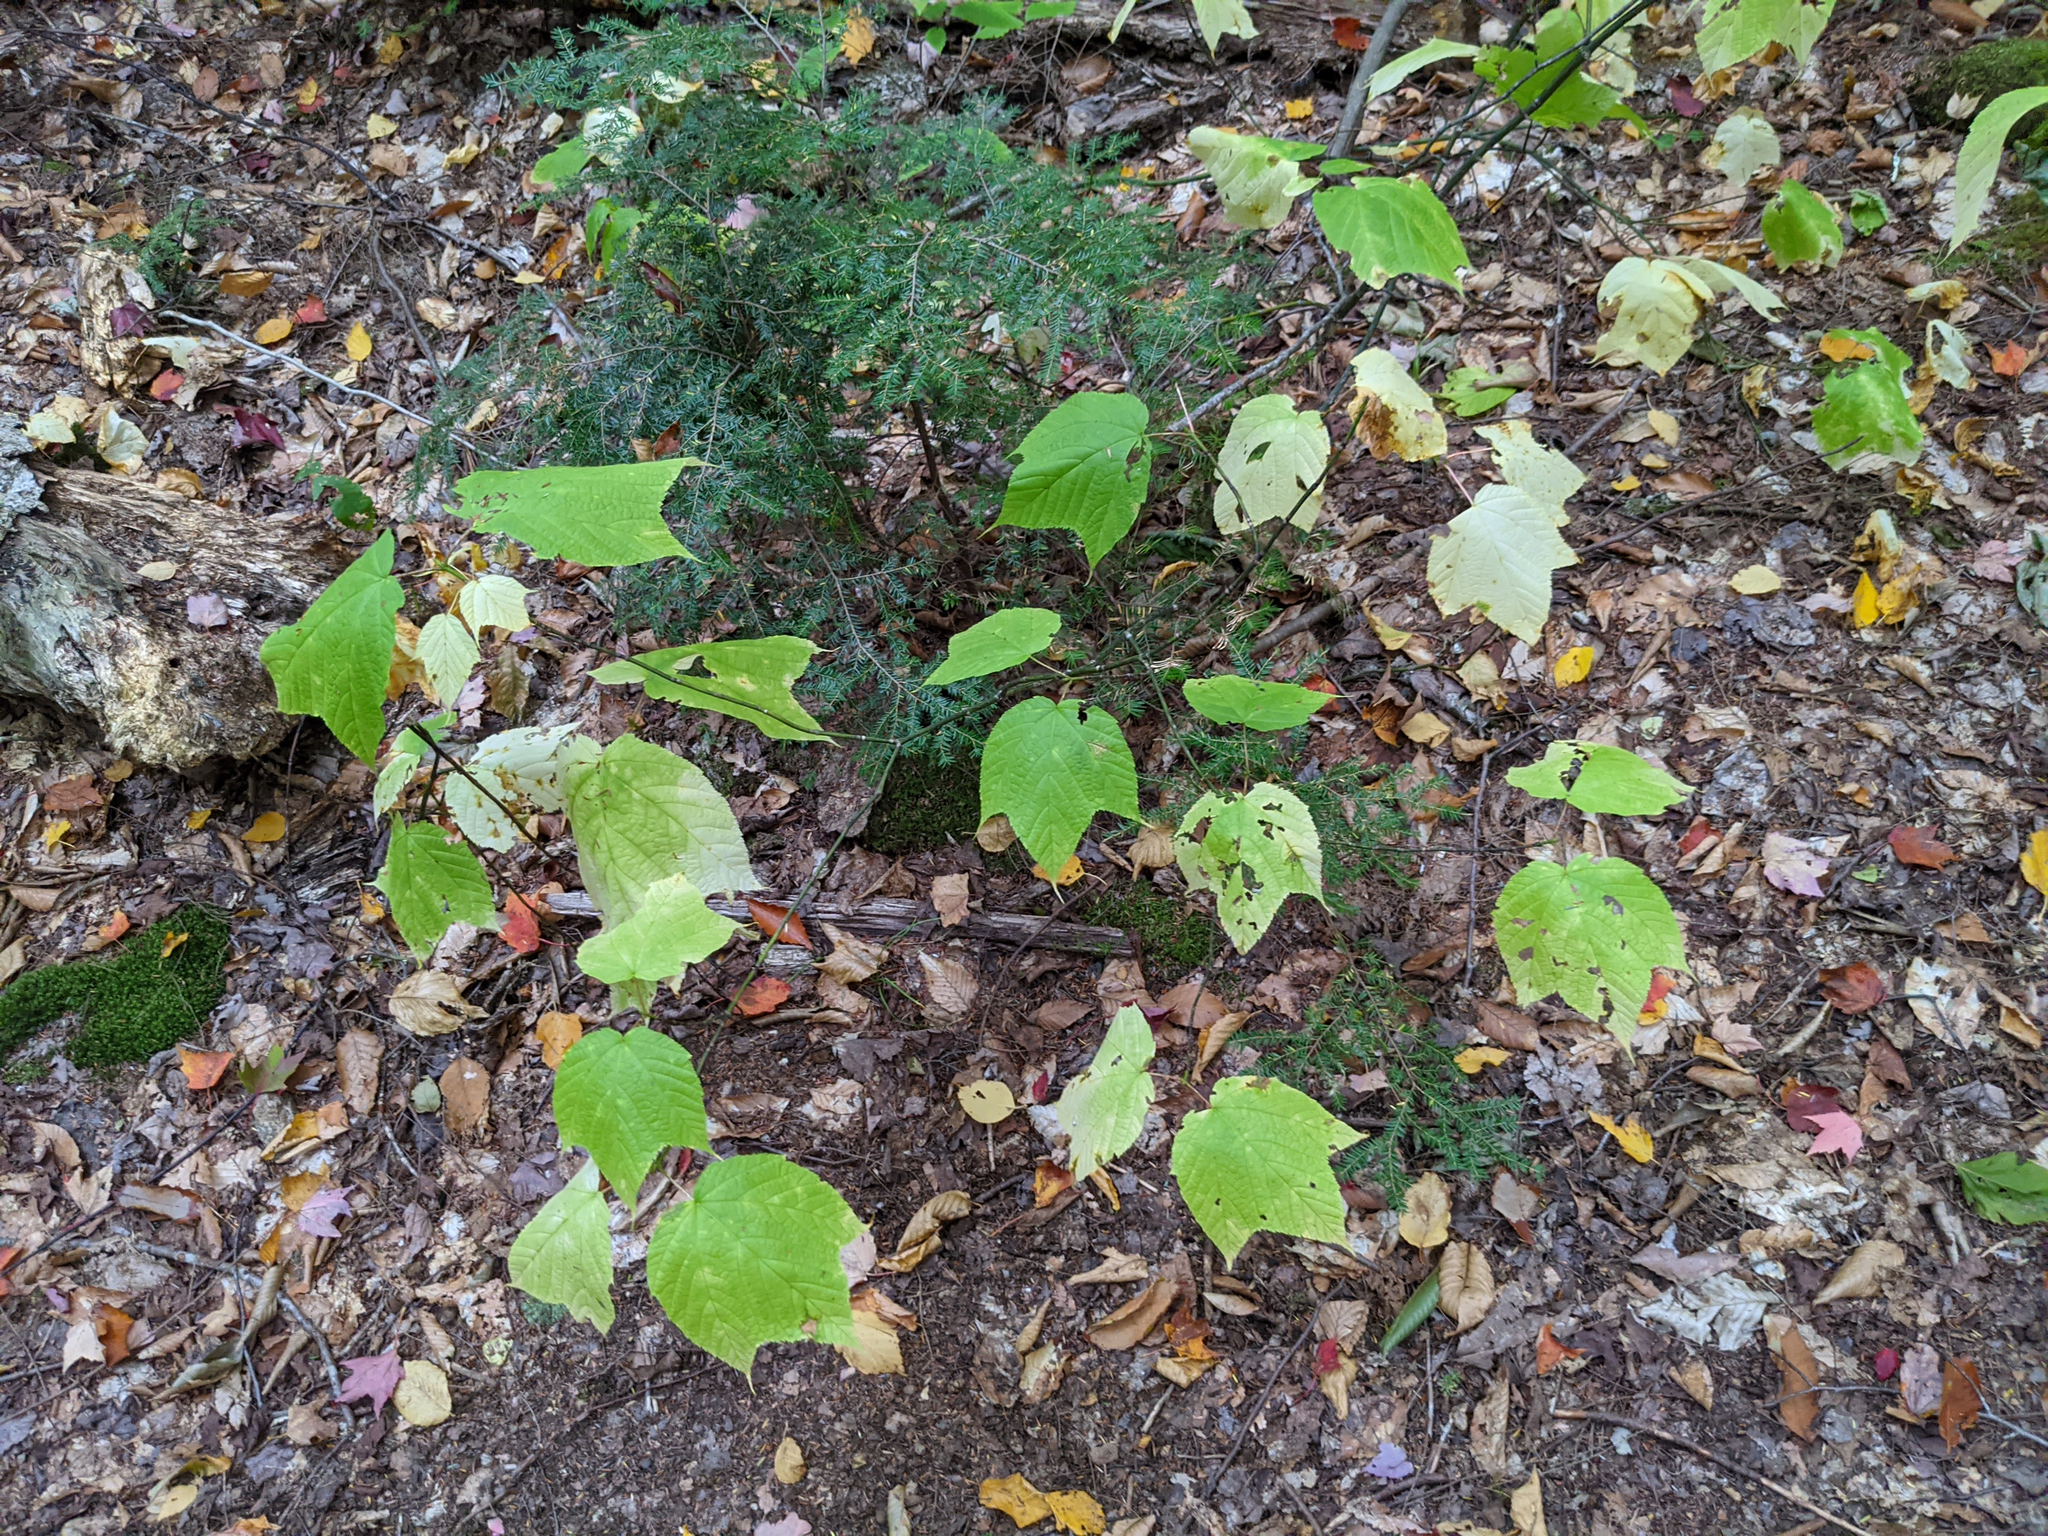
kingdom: Plantae
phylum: Tracheophyta
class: Magnoliopsida
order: Sapindales
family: Sapindaceae
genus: Acer
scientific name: Acer pensylvanicum
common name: Moosewood
